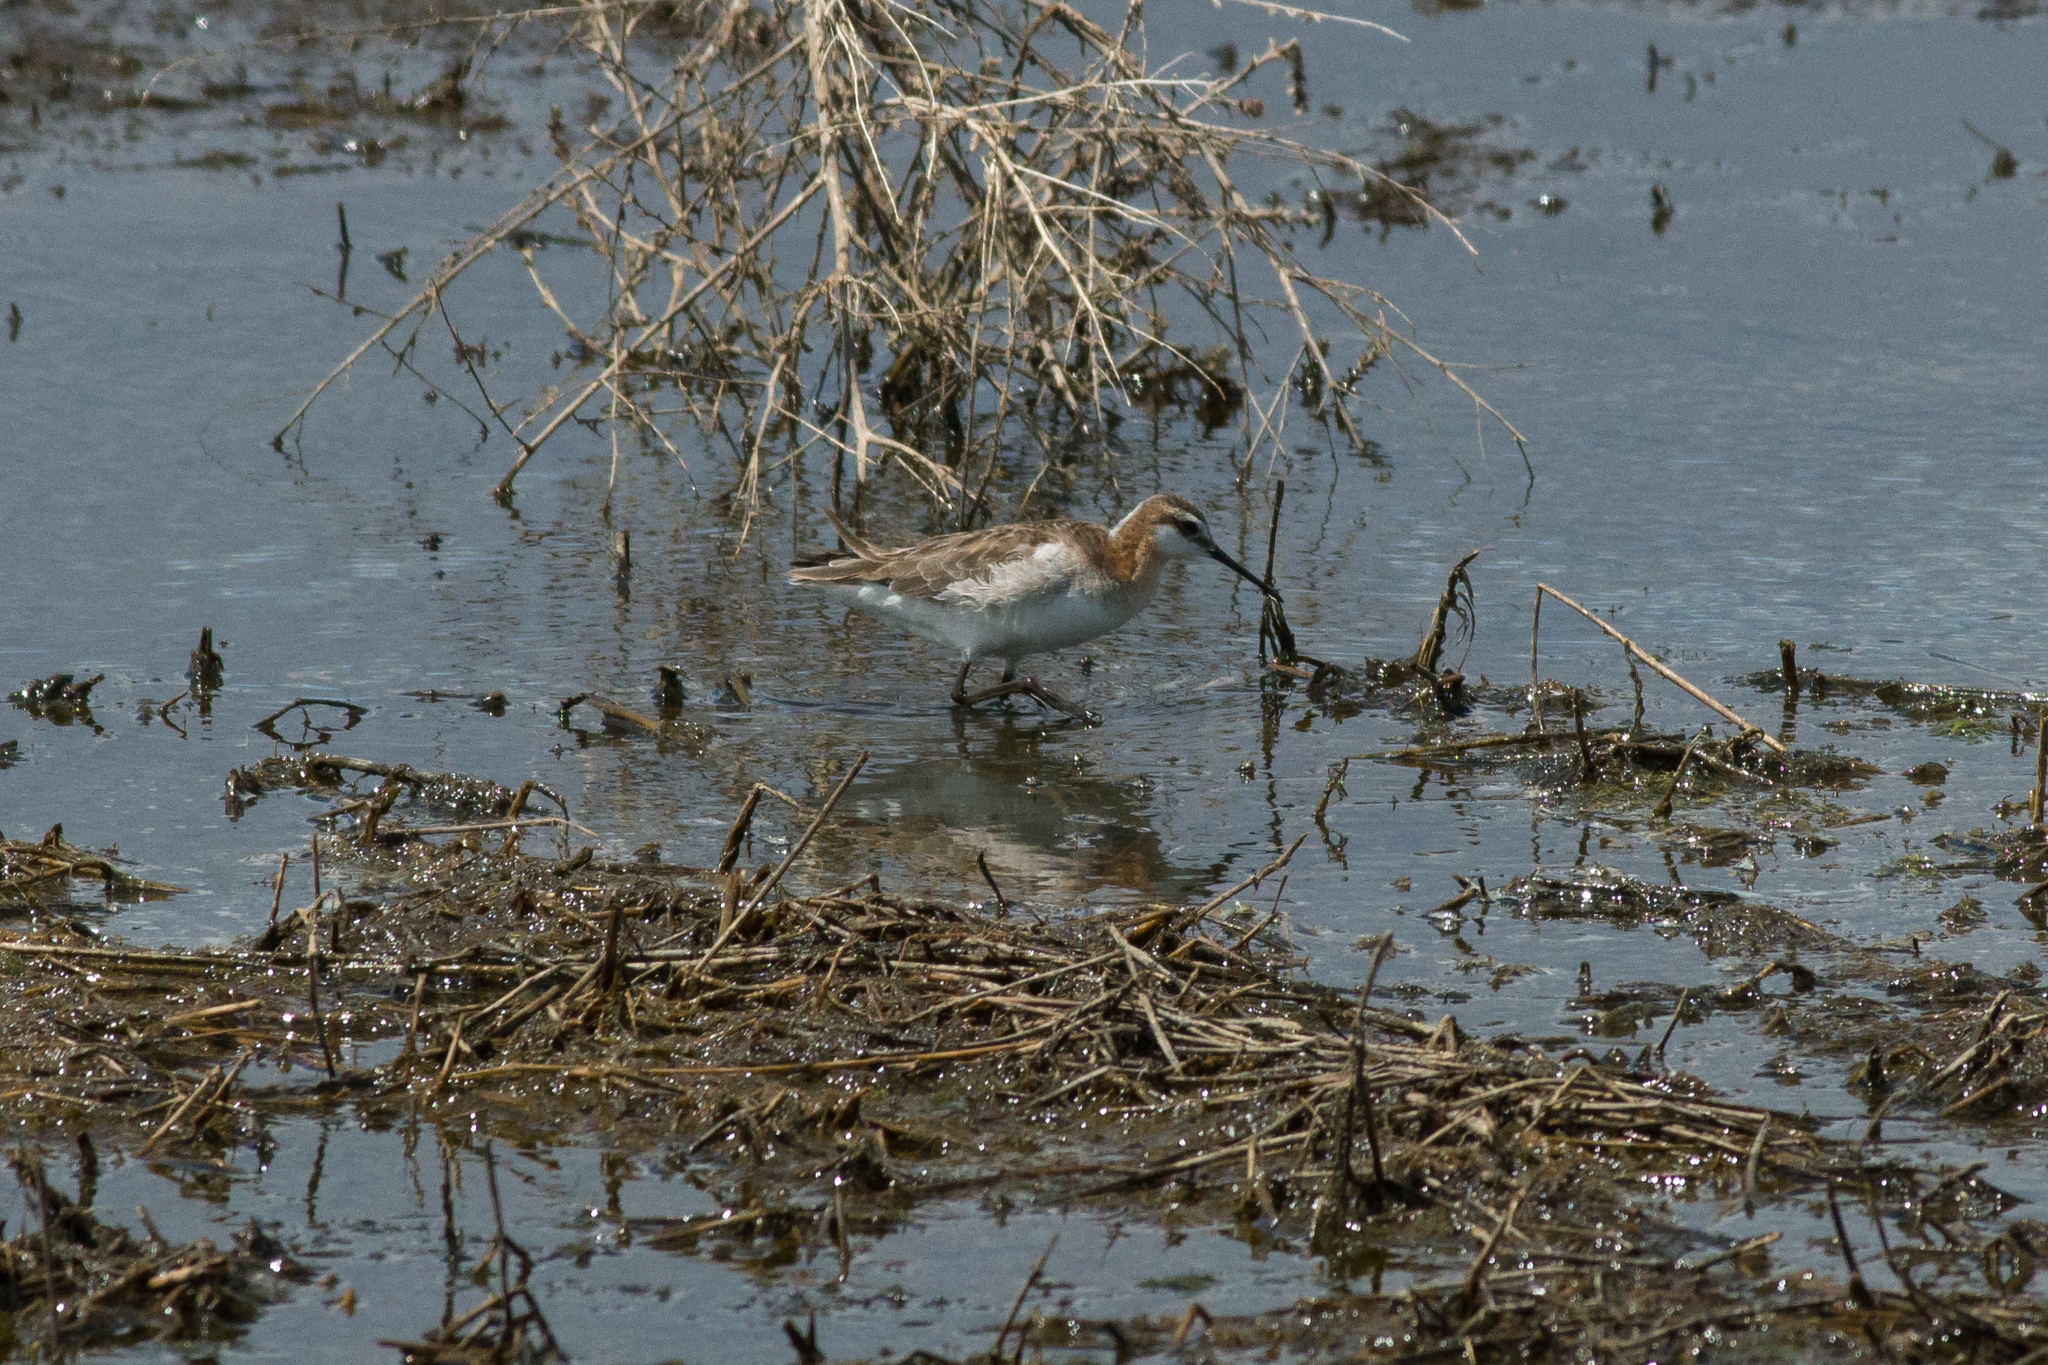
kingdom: Animalia
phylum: Chordata
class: Aves
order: Charadriiformes
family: Scolopacidae
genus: Phalaropus
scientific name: Phalaropus tricolor
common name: Wilson's phalarope
